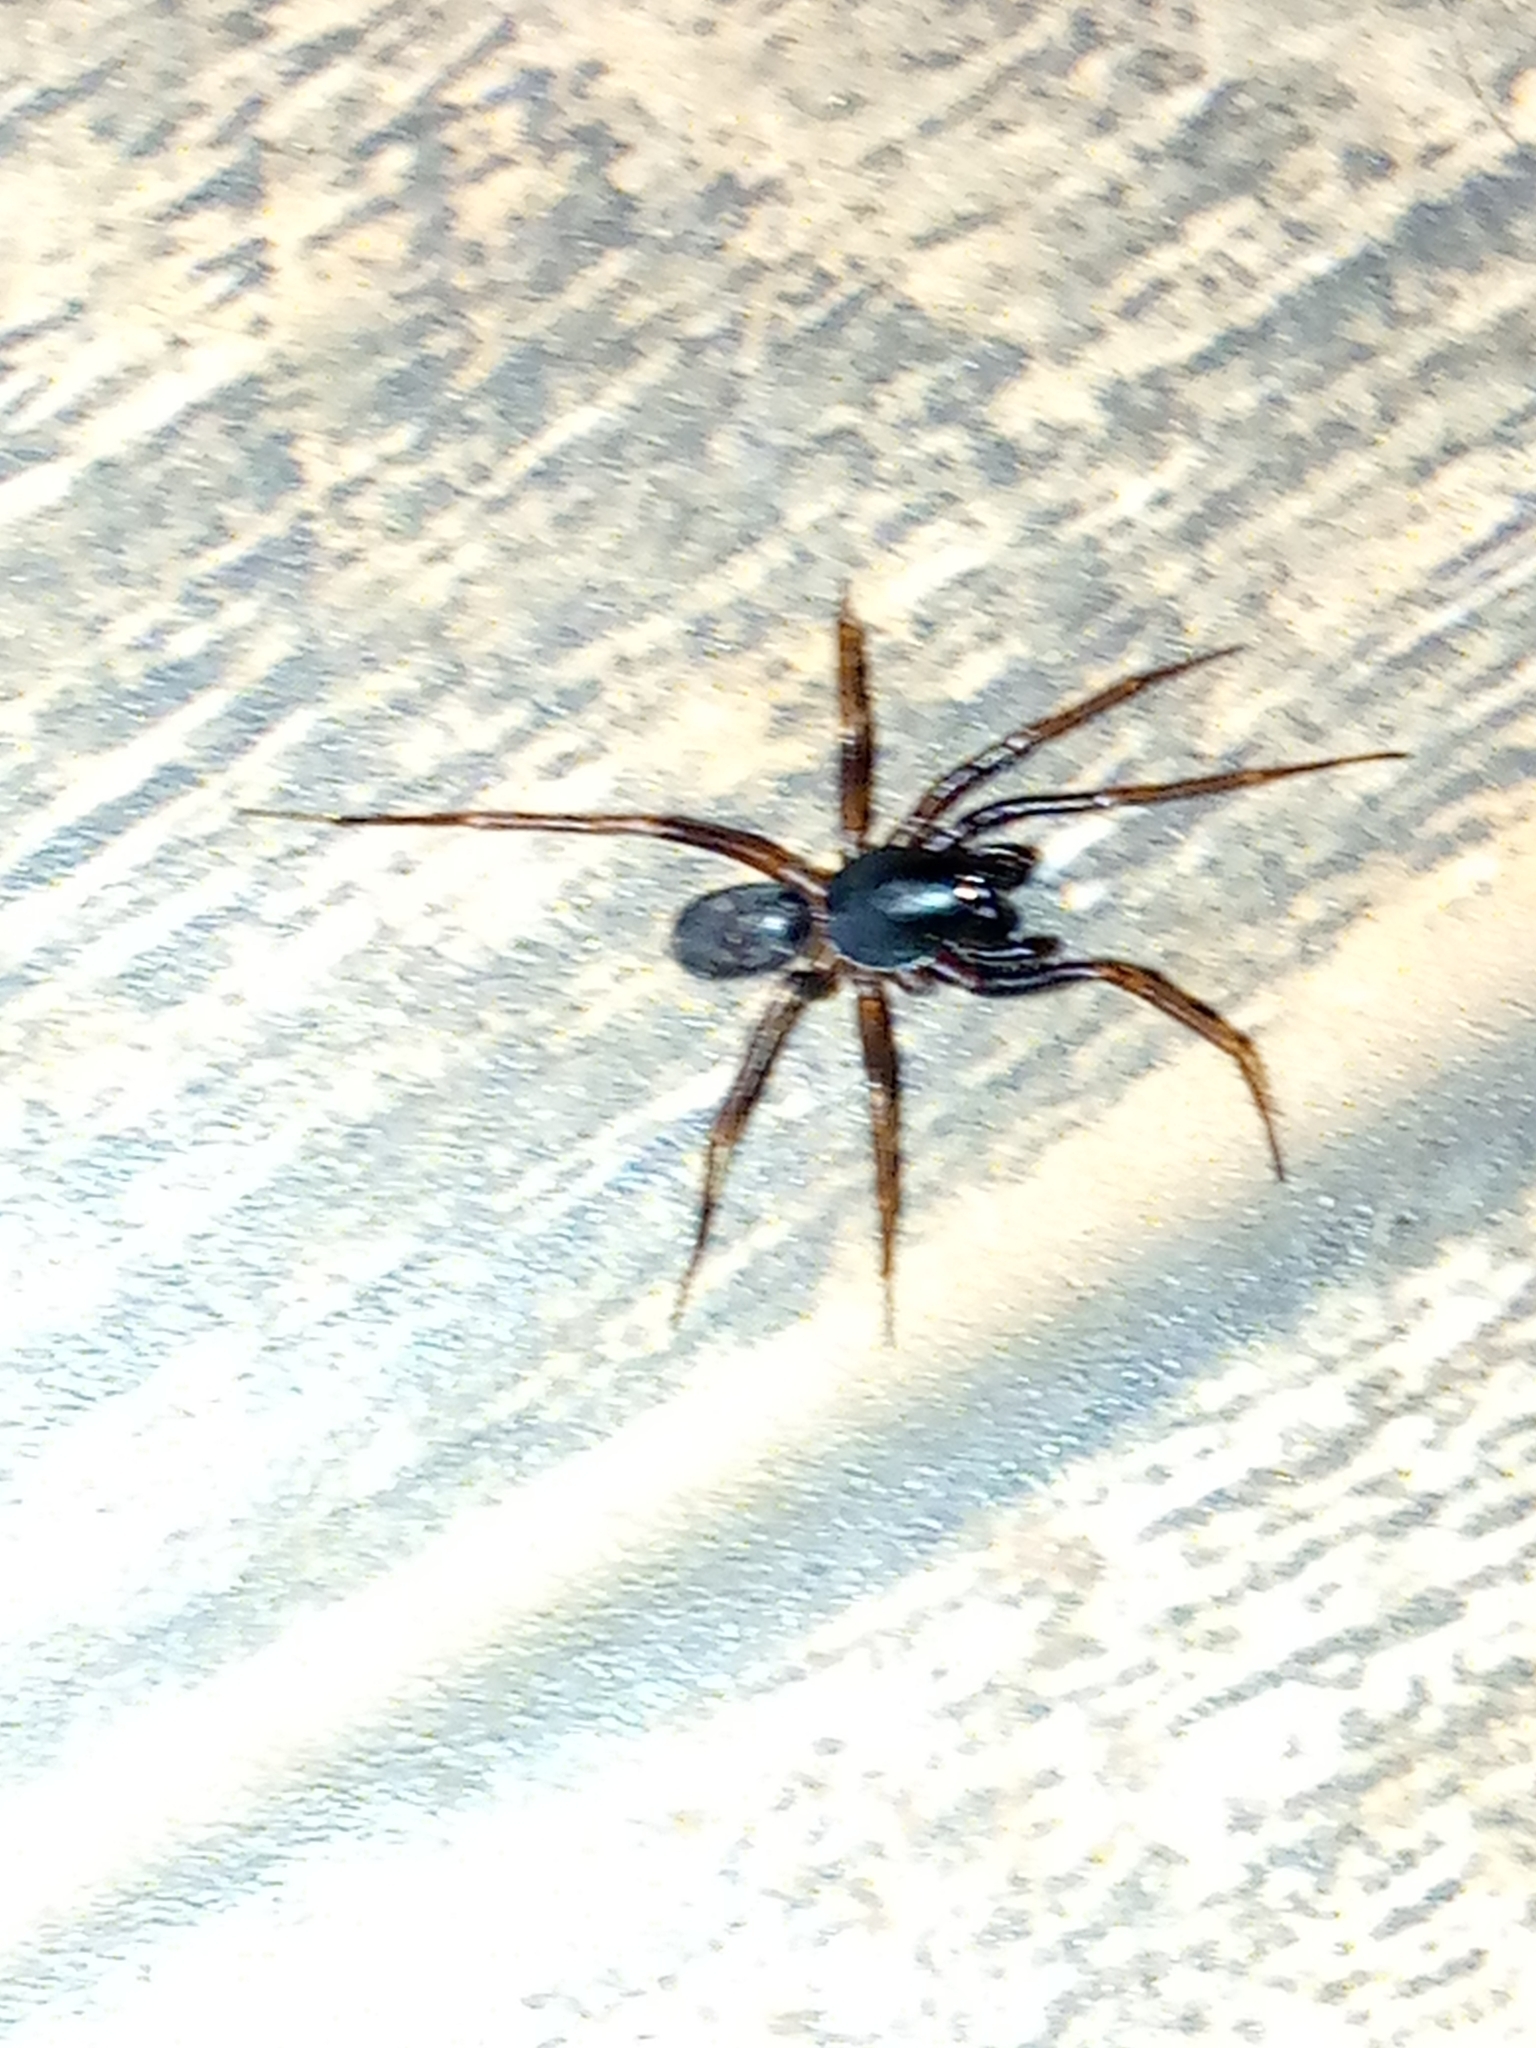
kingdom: Animalia
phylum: Arthropoda
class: Arachnida
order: Araneae
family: Corinnidae
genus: Falconina
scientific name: Falconina gracilis
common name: Antmimic spider
